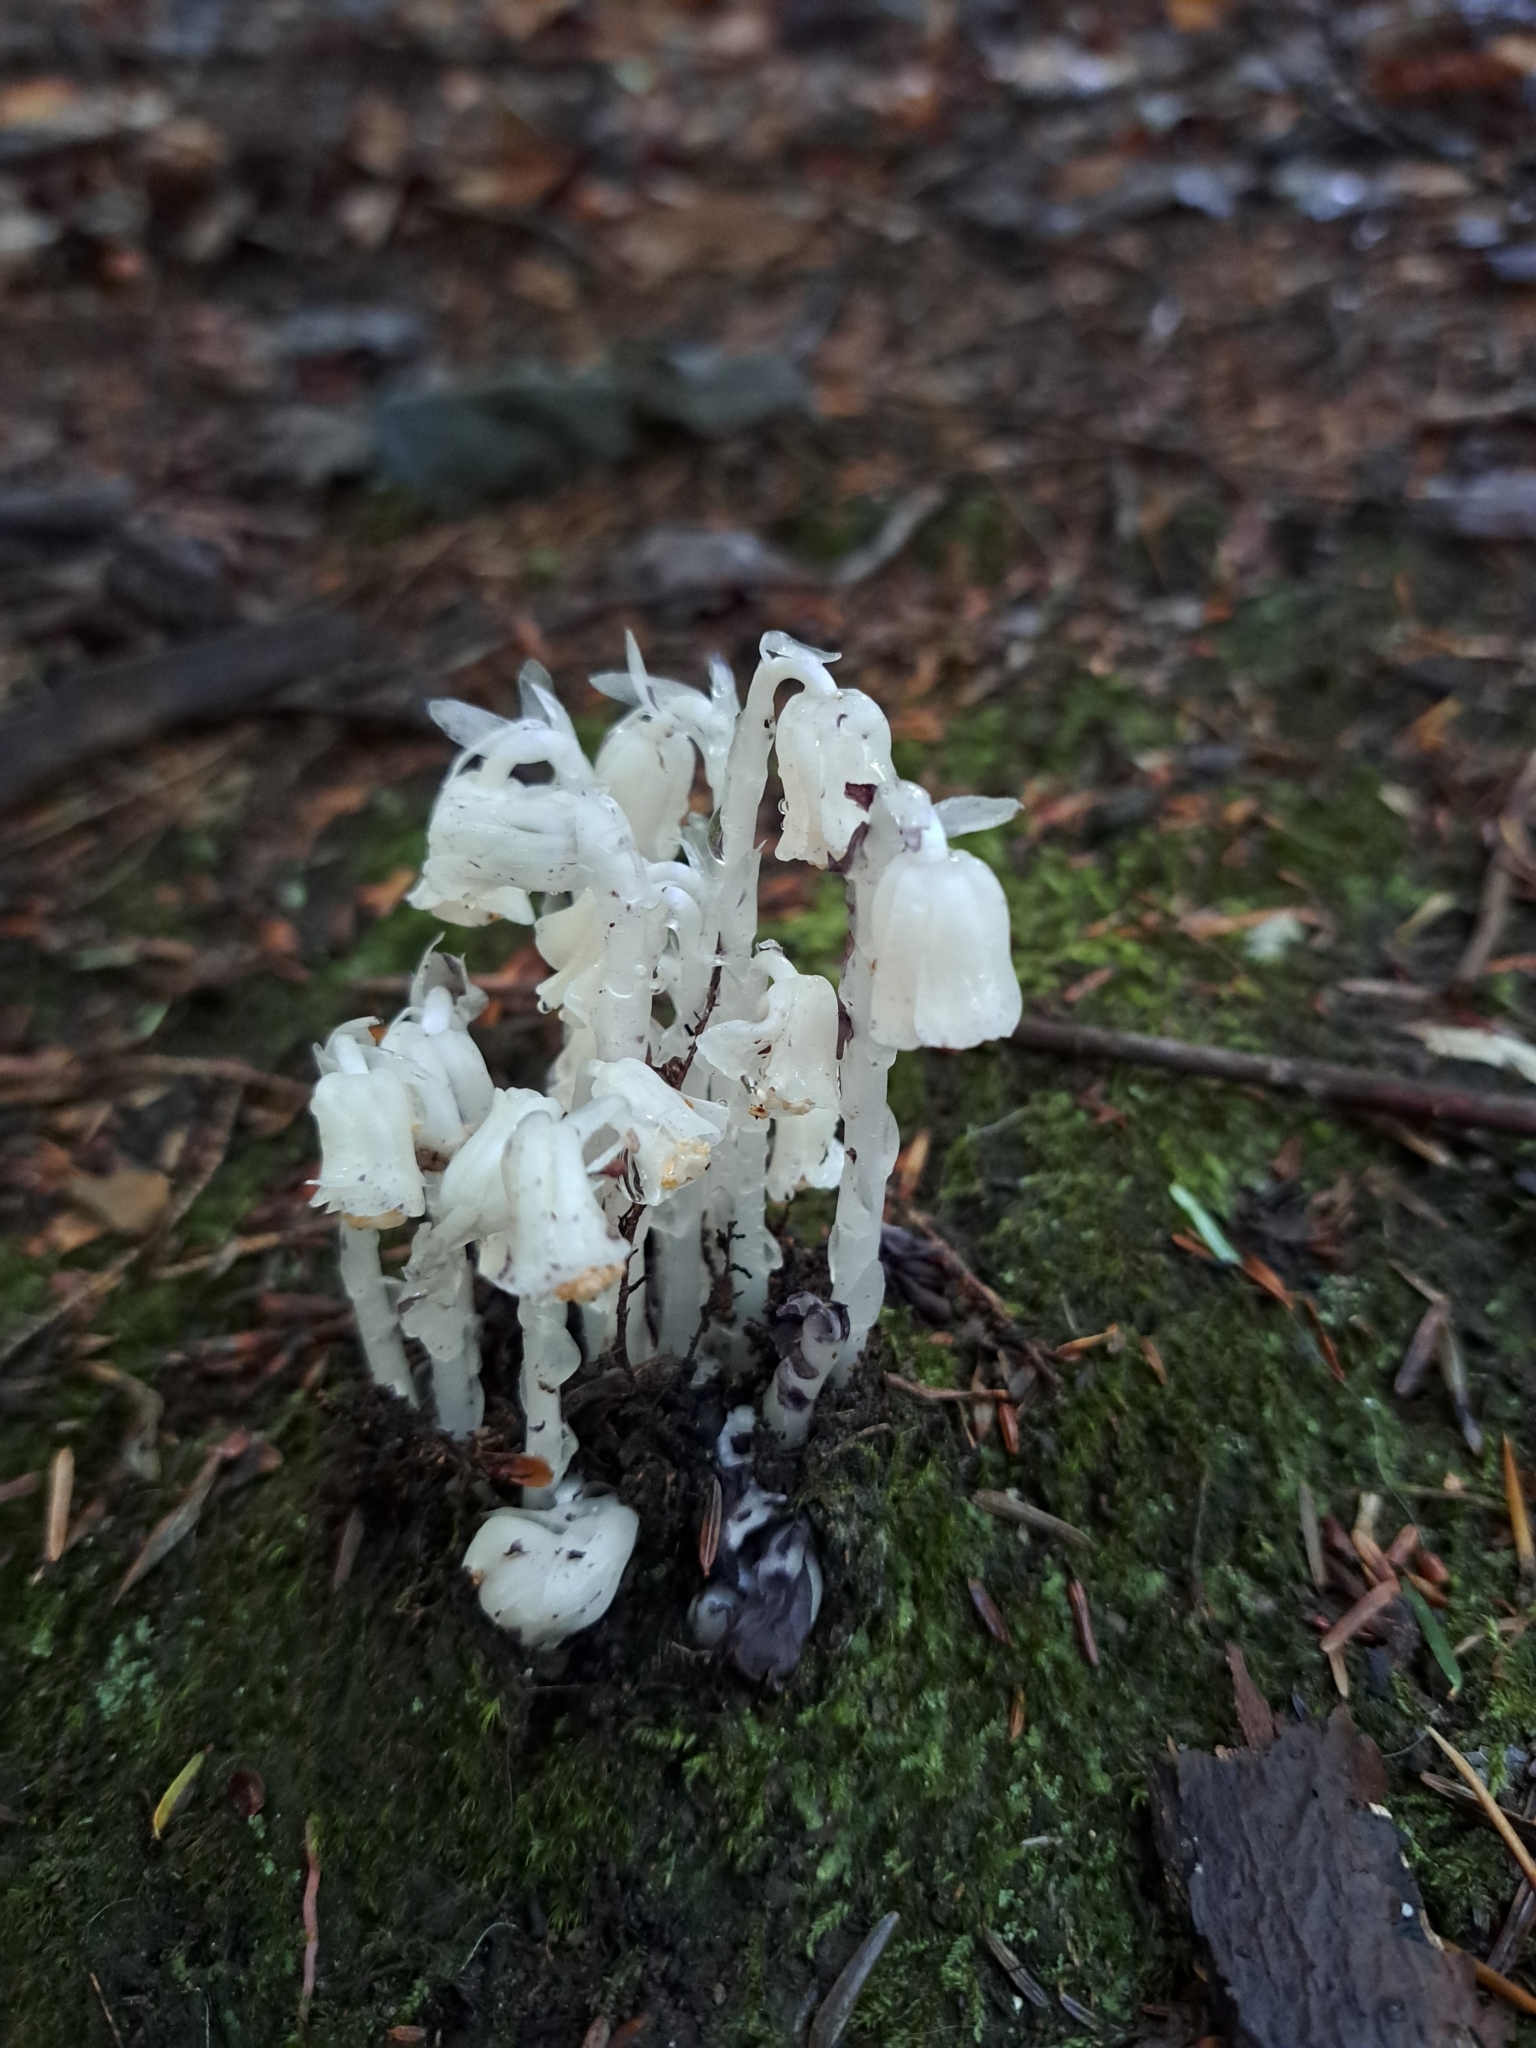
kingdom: Plantae
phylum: Tracheophyta
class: Magnoliopsida
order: Ericales
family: Ericaceae
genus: Monotropa
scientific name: Monotropa uniflora
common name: Convulsion root
